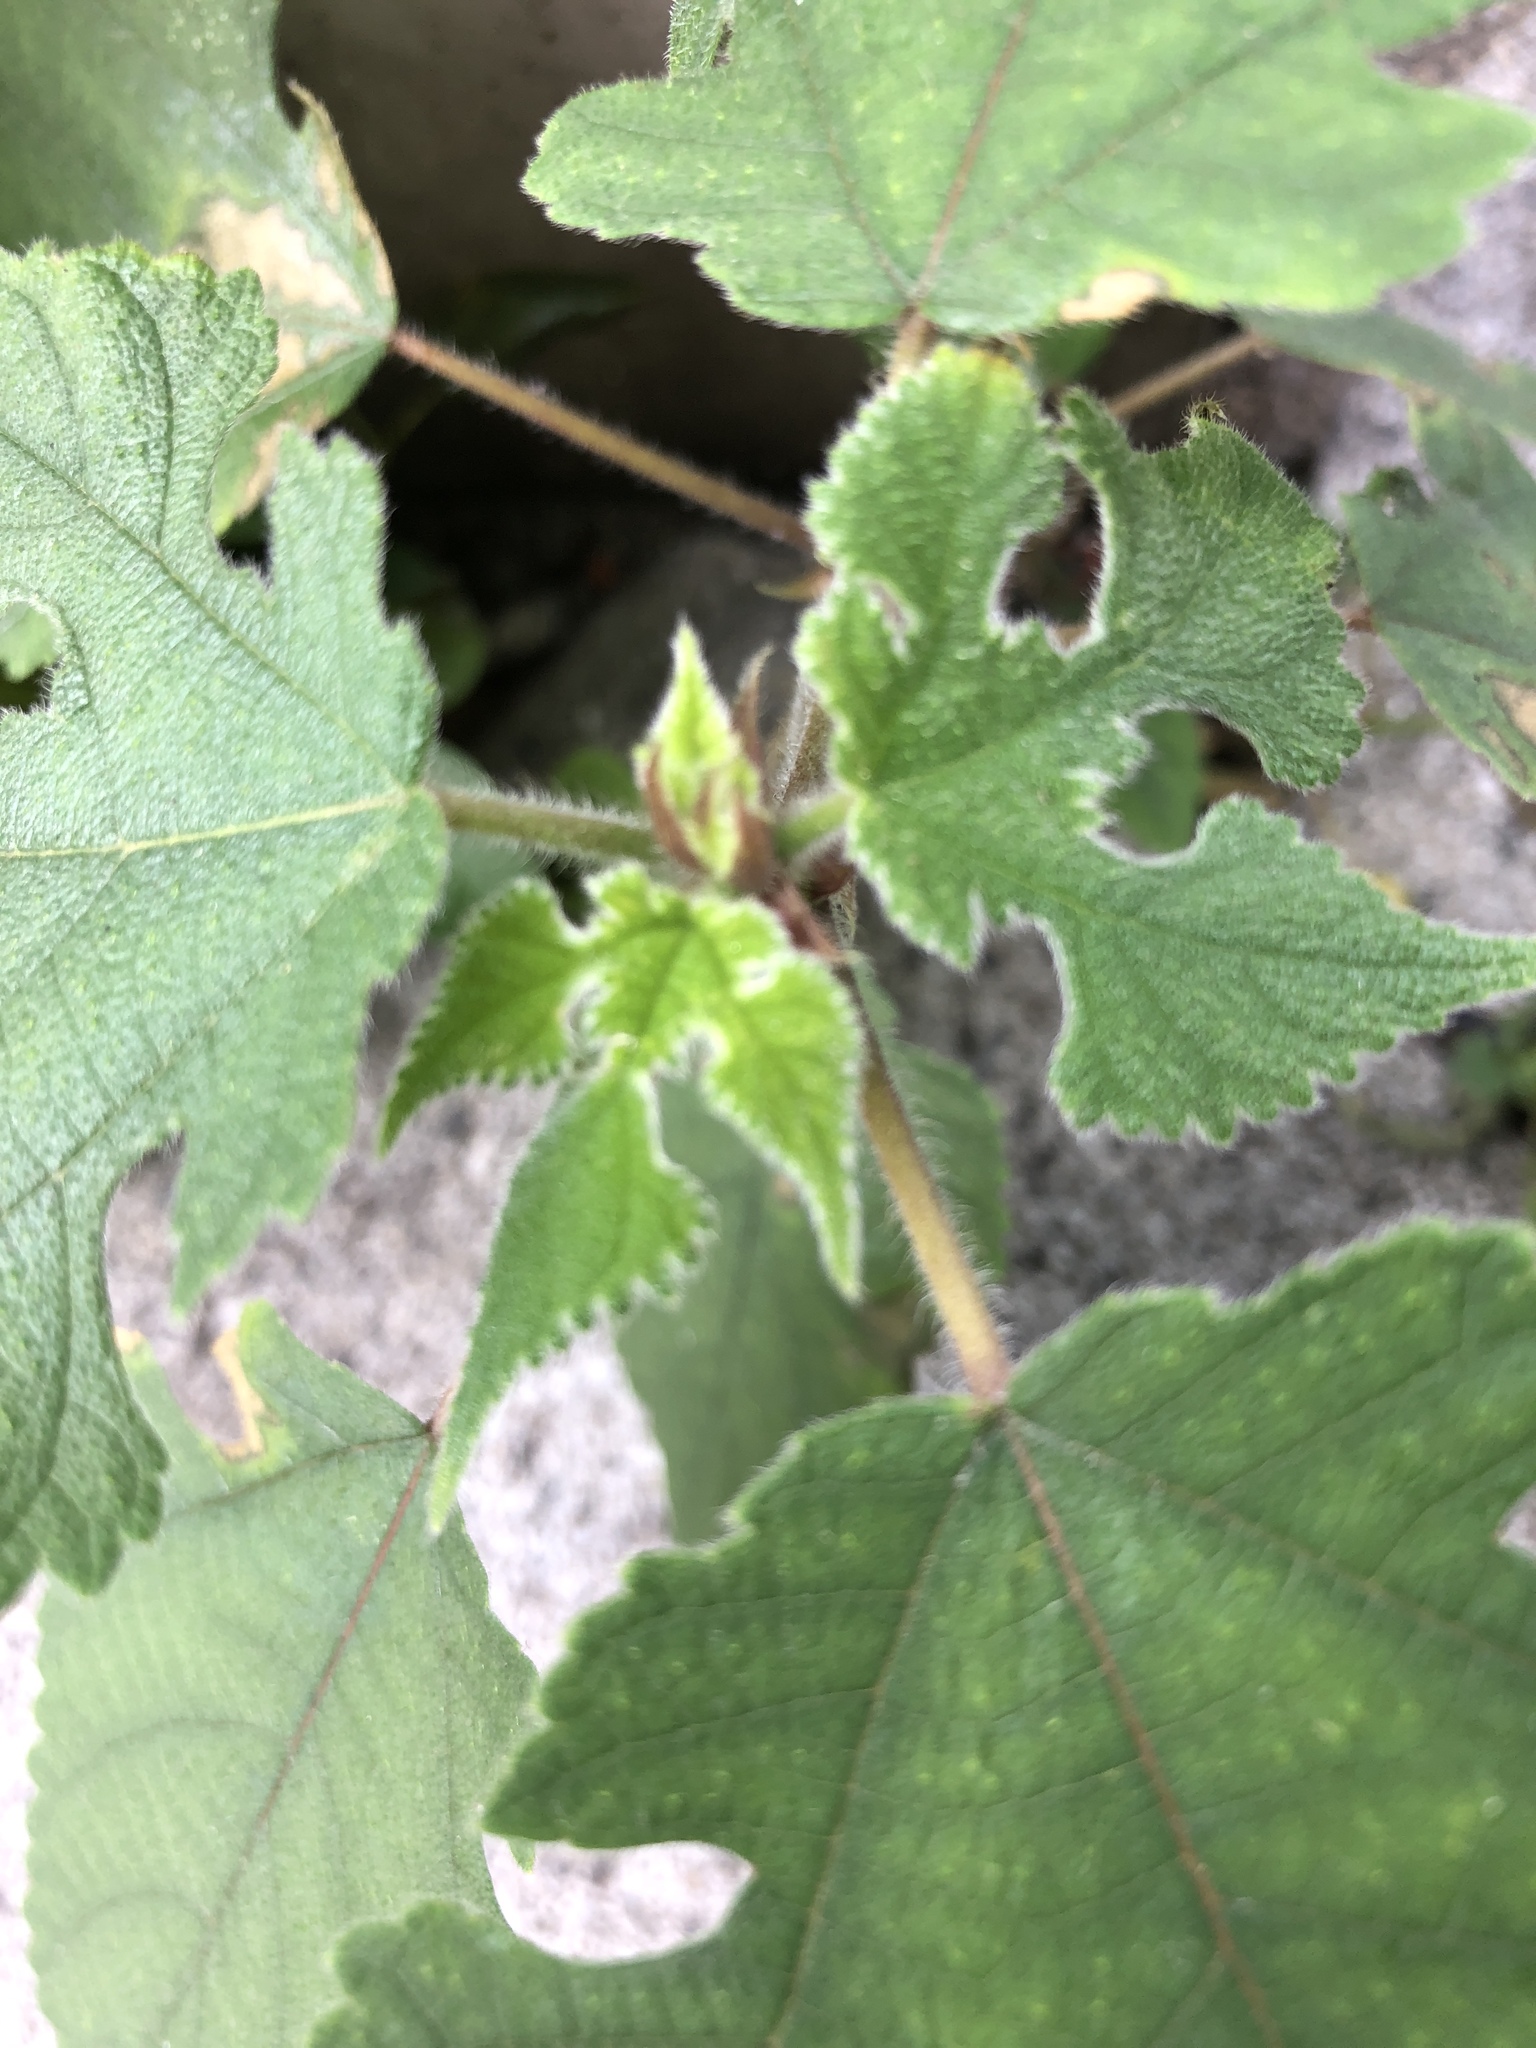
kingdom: Plantae
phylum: Tracheophyta
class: Magnoliopsida
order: Rosales
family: Moraceae
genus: Broussonetia
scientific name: Broussonetia papyrifera
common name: Paper mulberry
